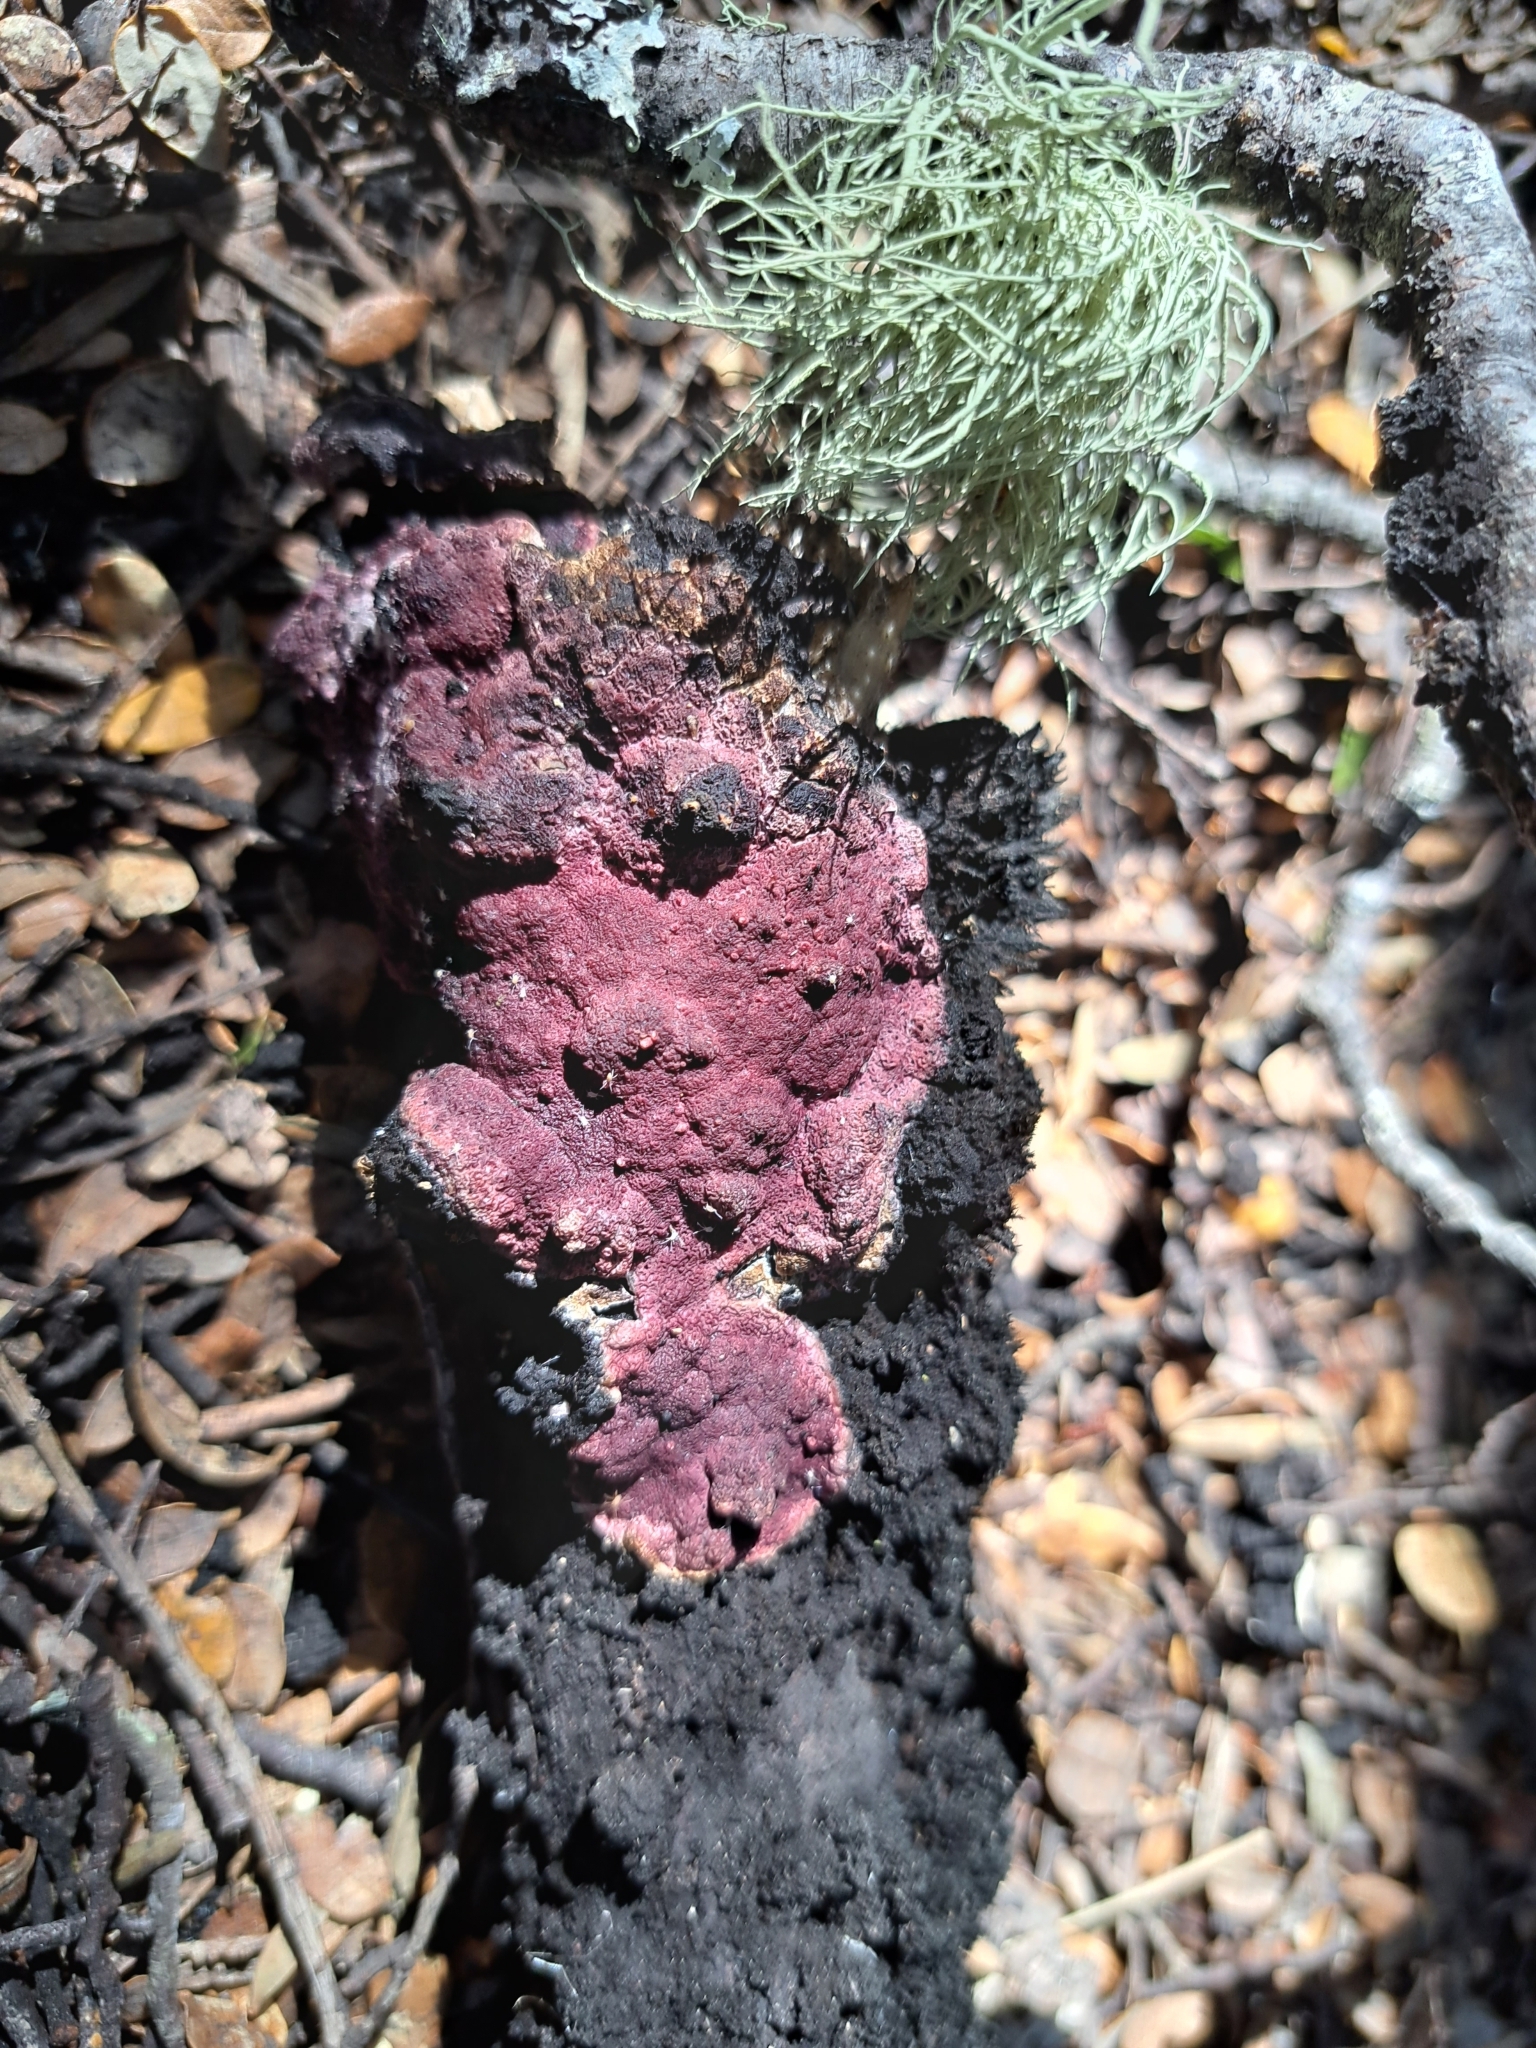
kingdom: Fungi
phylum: Basidiomycota
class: Agaricomycetes
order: Polyporales
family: Irpicaceae
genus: Byssomerulius
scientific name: Byssomerulius psittacinus
